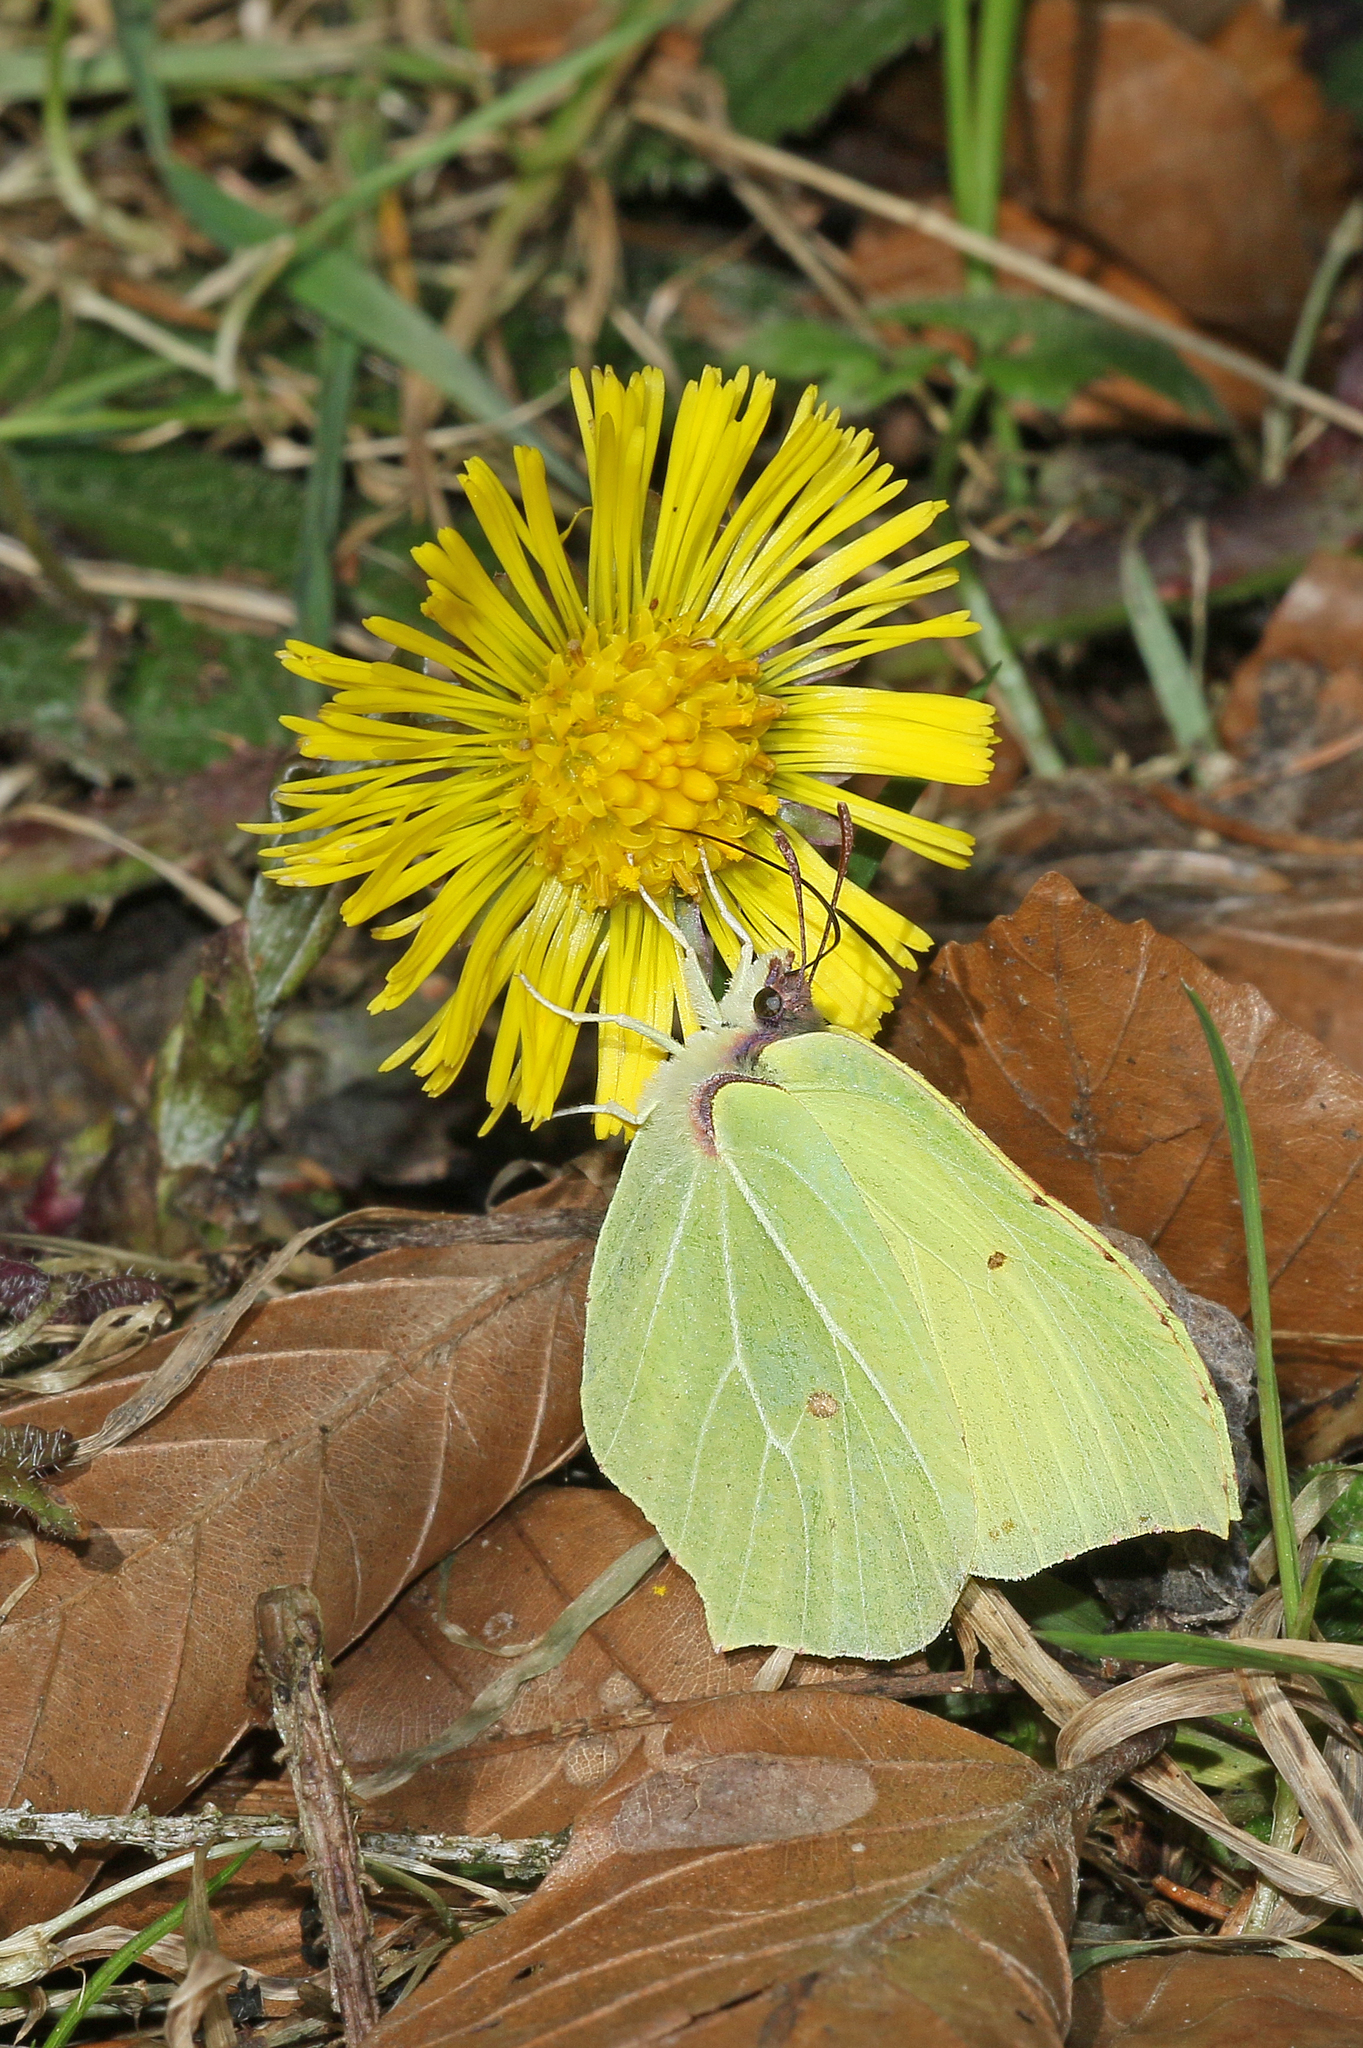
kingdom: Animalia
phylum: Arthropoda
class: Insecta
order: Lepidoptera
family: Pieridae
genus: Gonepteryx
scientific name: Gonepteryx rhamni
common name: Brimstone
